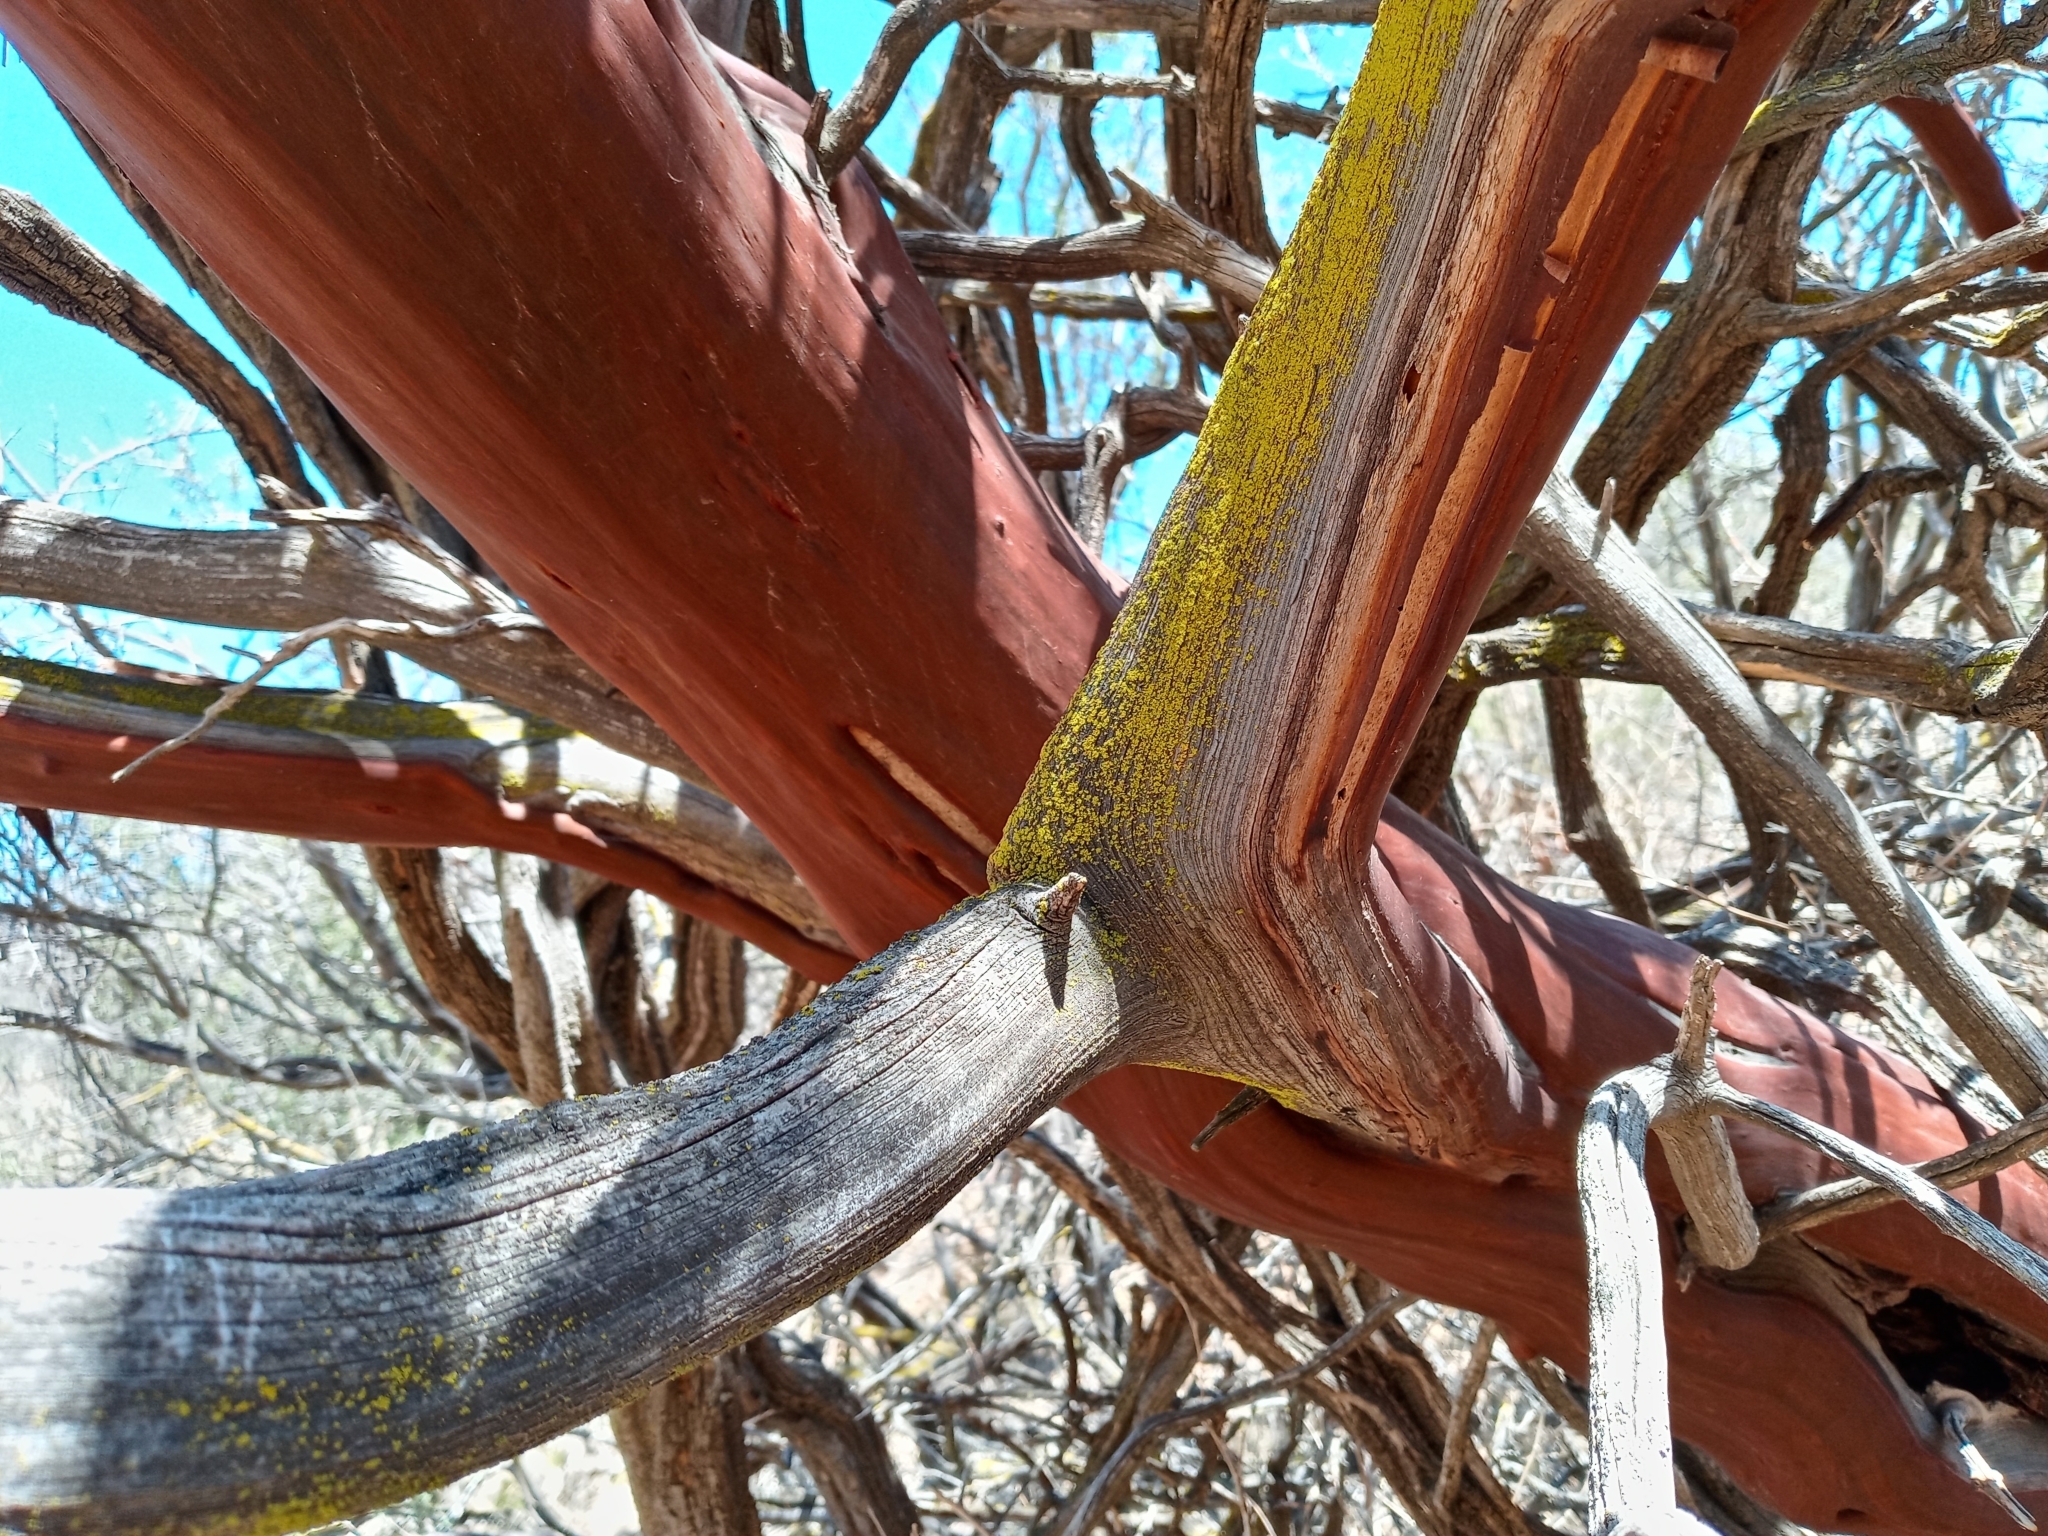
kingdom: Plantae
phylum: Tracheophyta
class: Magnoliopsida
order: Ericales
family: Ericaceae
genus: Arctostaphylos
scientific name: Arctostaphylos glauca
